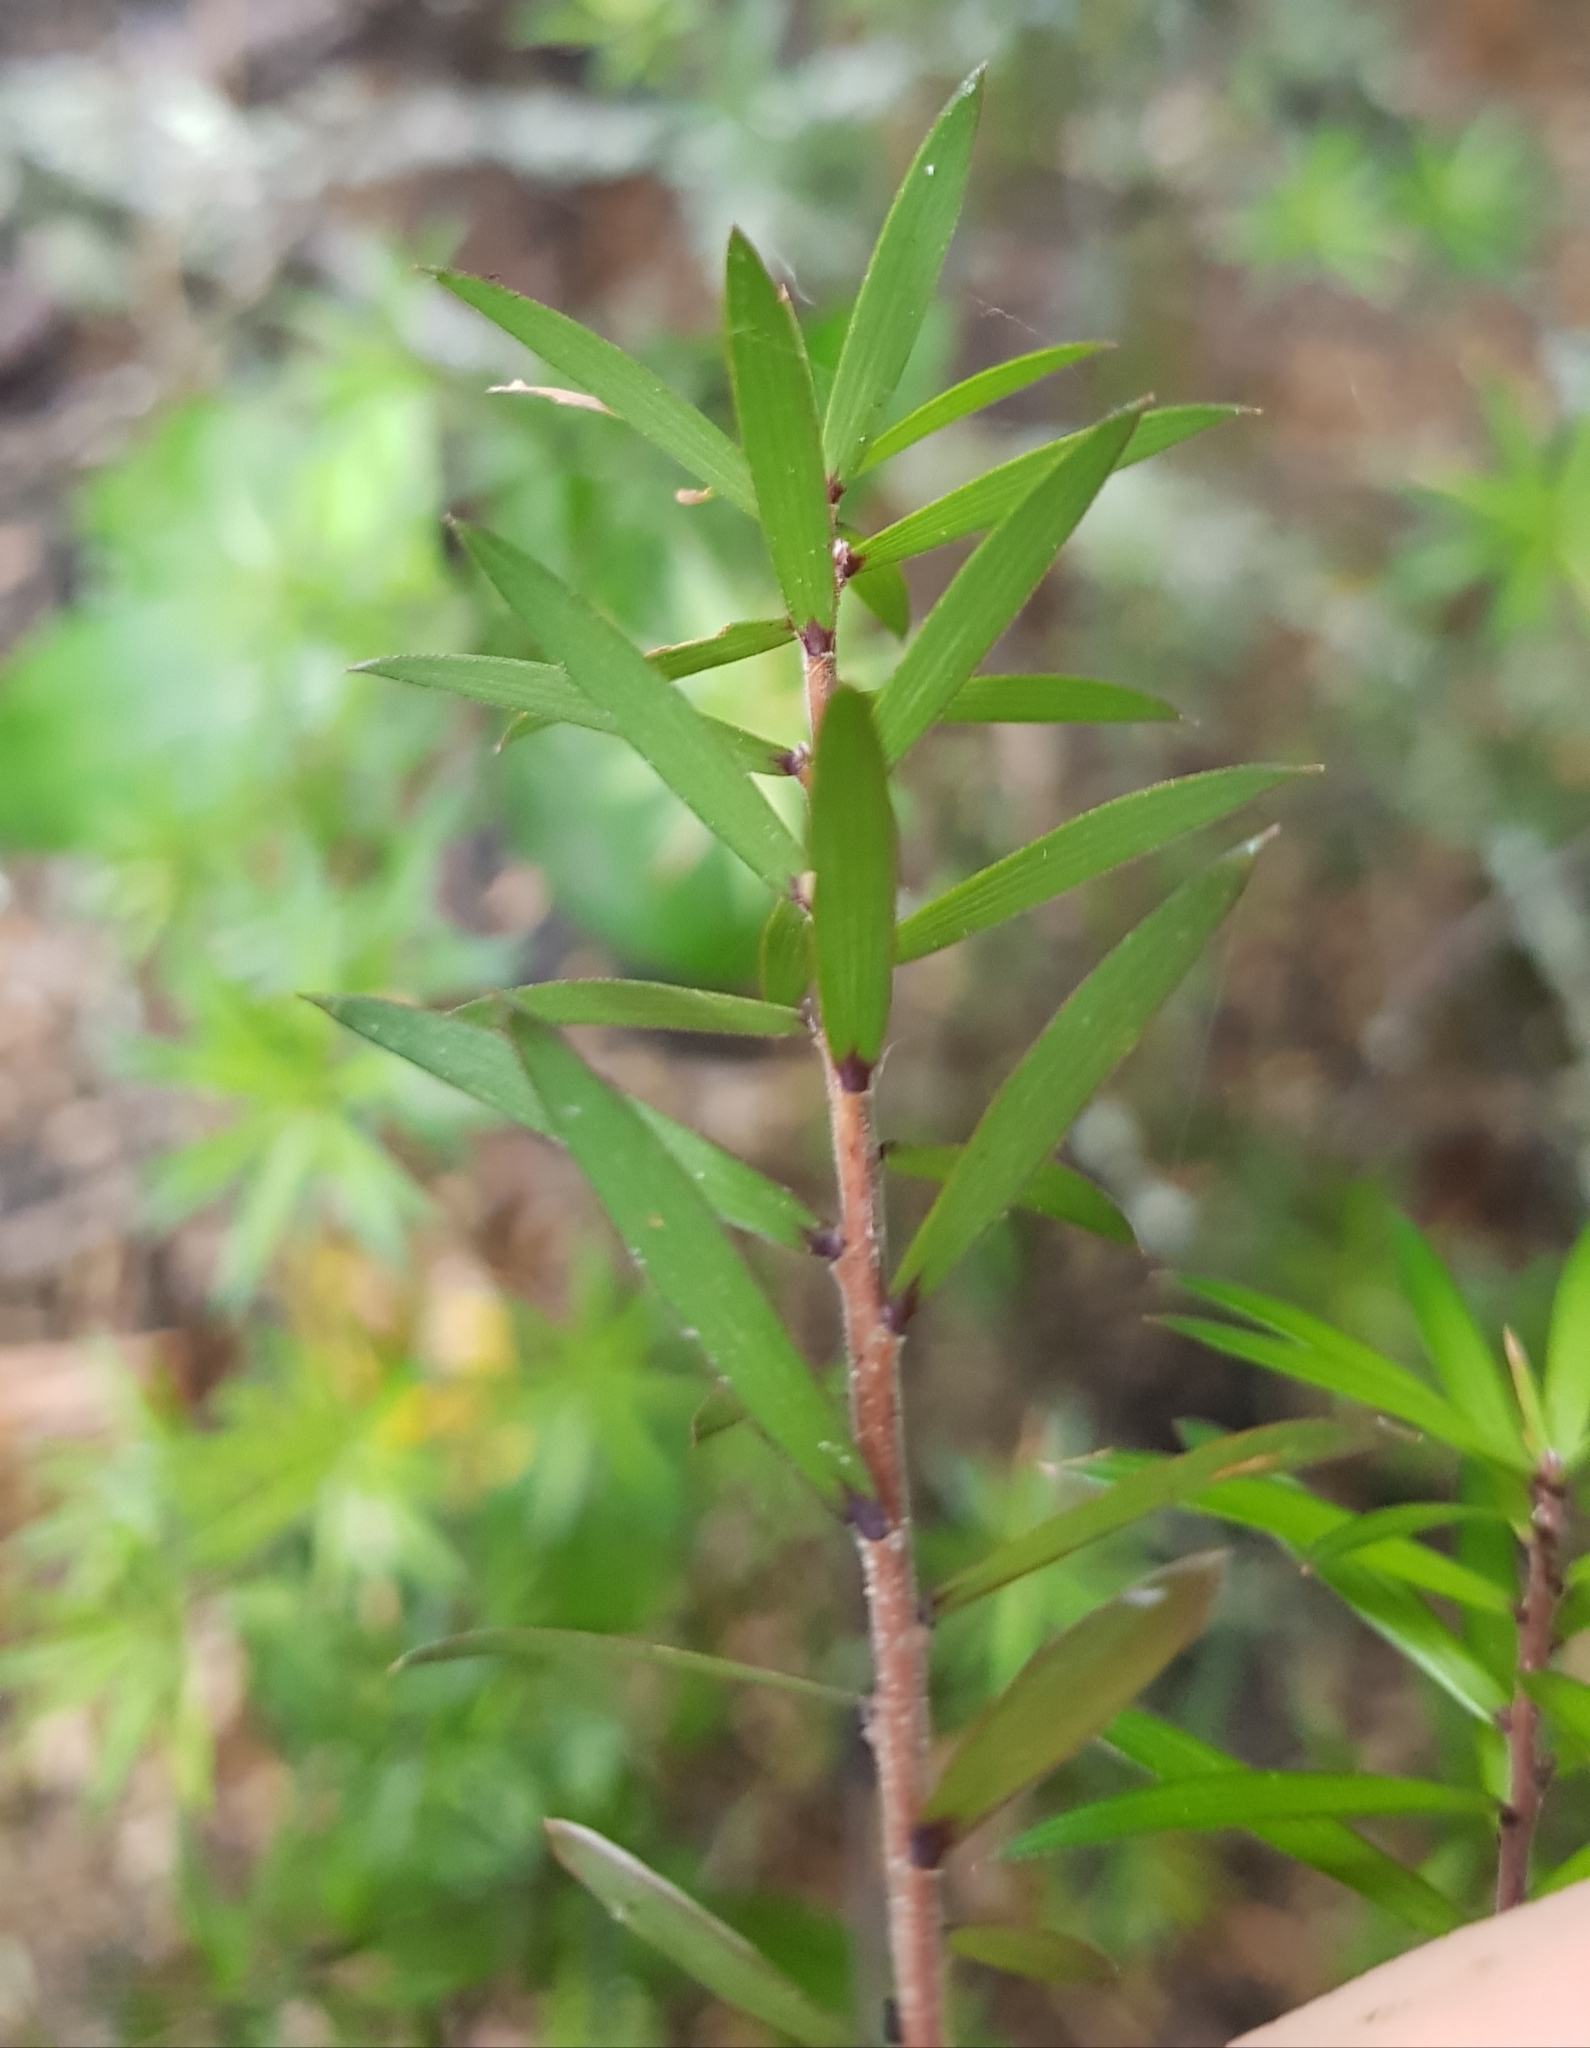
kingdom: Plantae
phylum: Tracheophyta
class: Magnoliopsida
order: Ericales
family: Ericaceae
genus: Leucopogon
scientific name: Leucopogon fasciculatus
